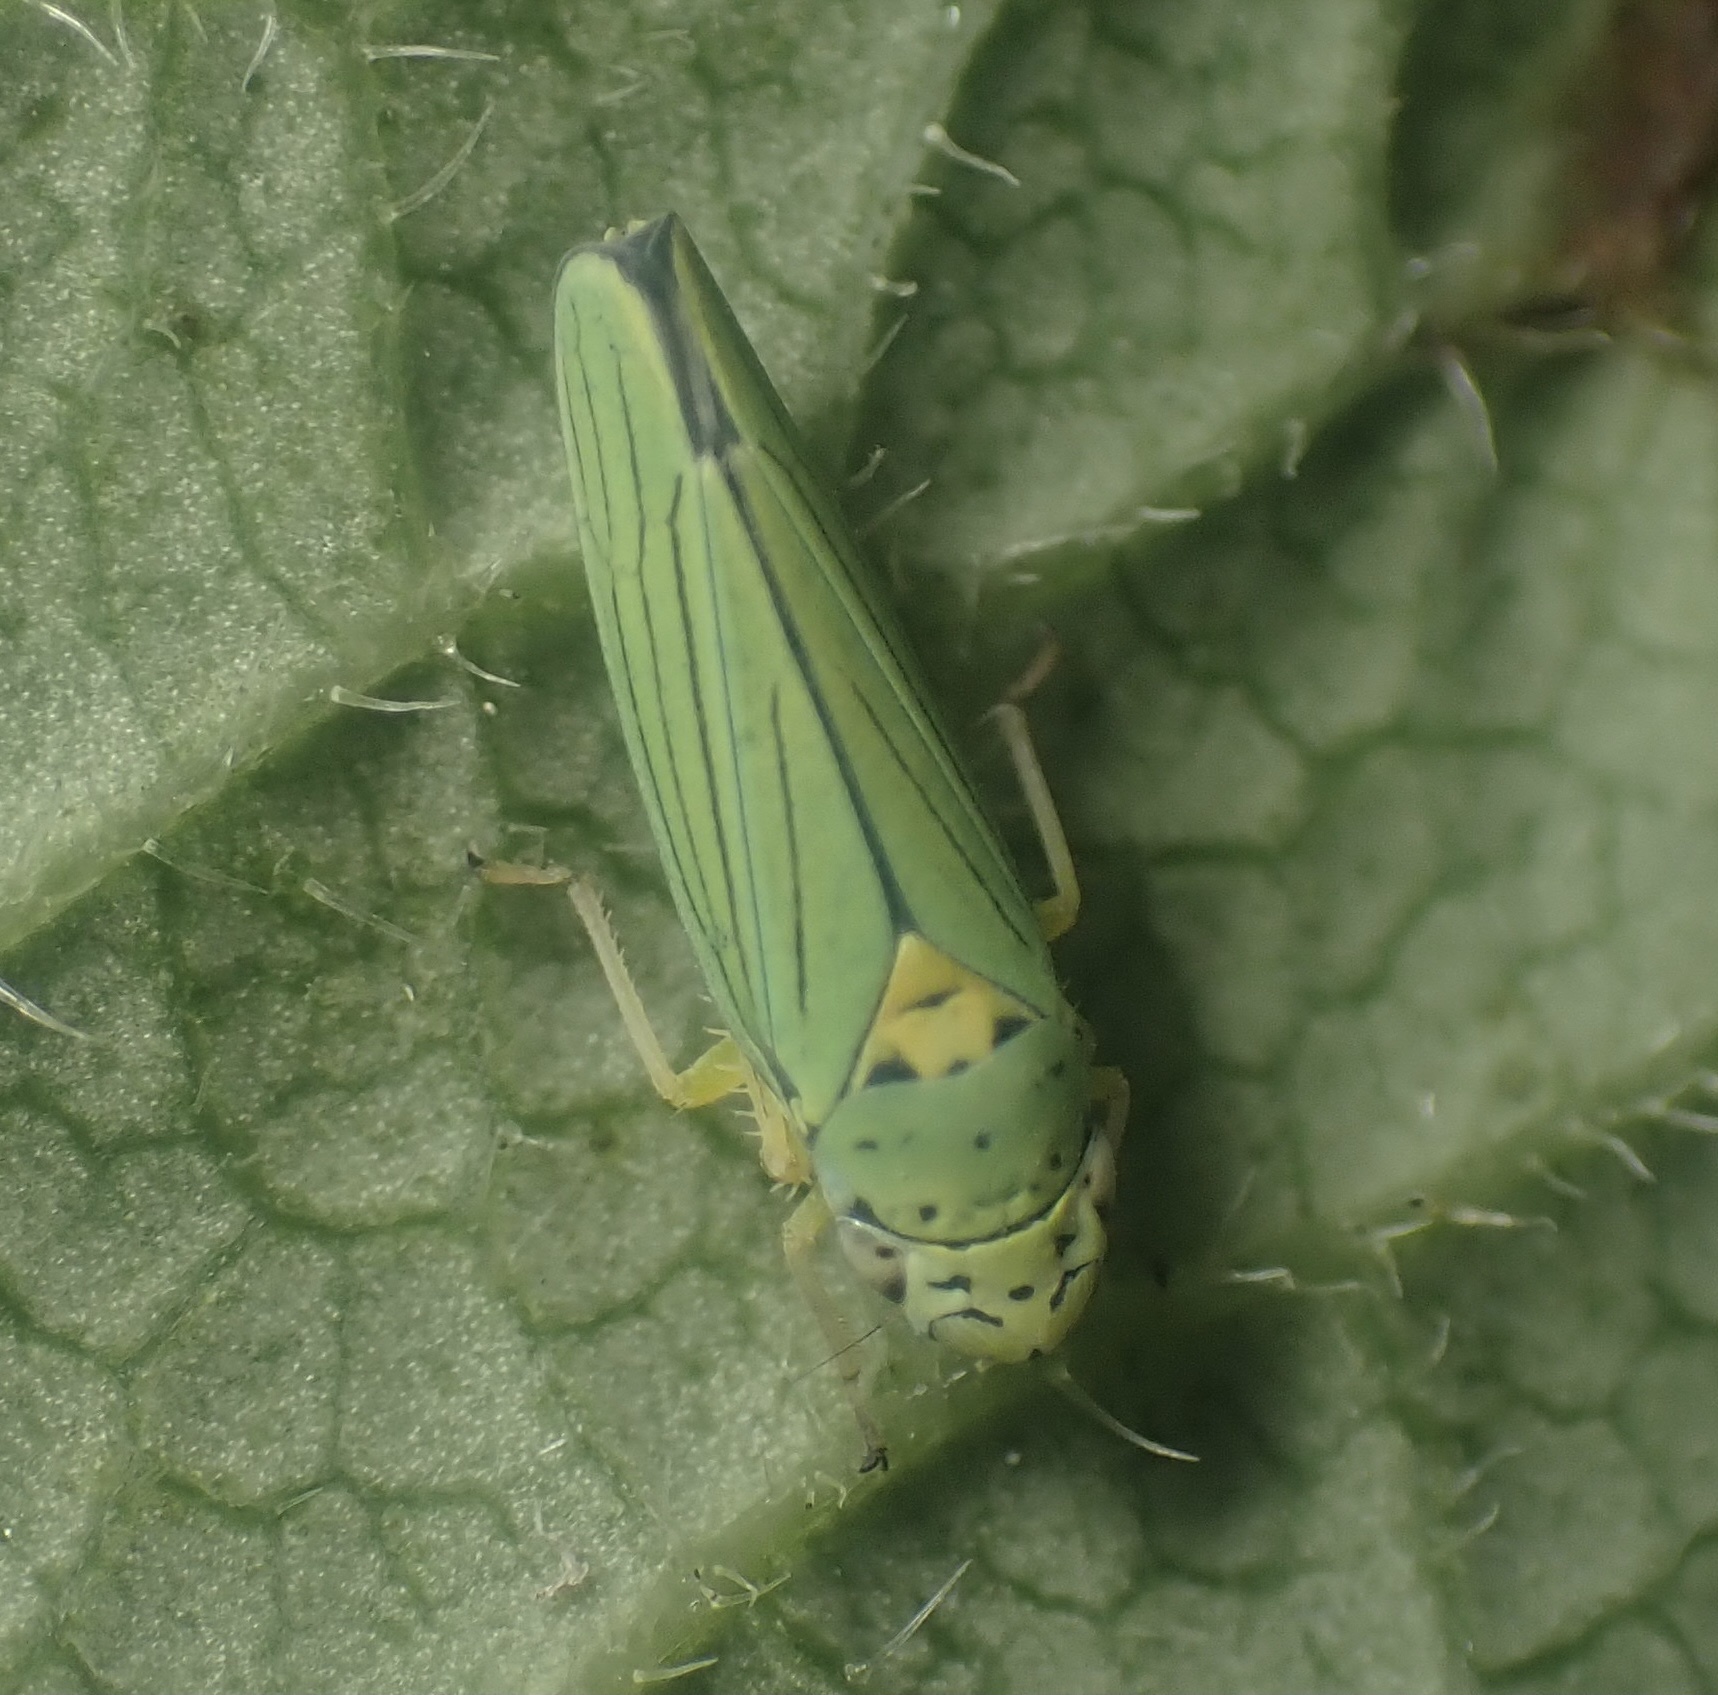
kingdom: Animalia
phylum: Arthropoda
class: Insecta
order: Hemiptera
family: Cicadellidae
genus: Graphocephala
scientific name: Graphocephala atropunctata
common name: Blue-green sharpshooter
